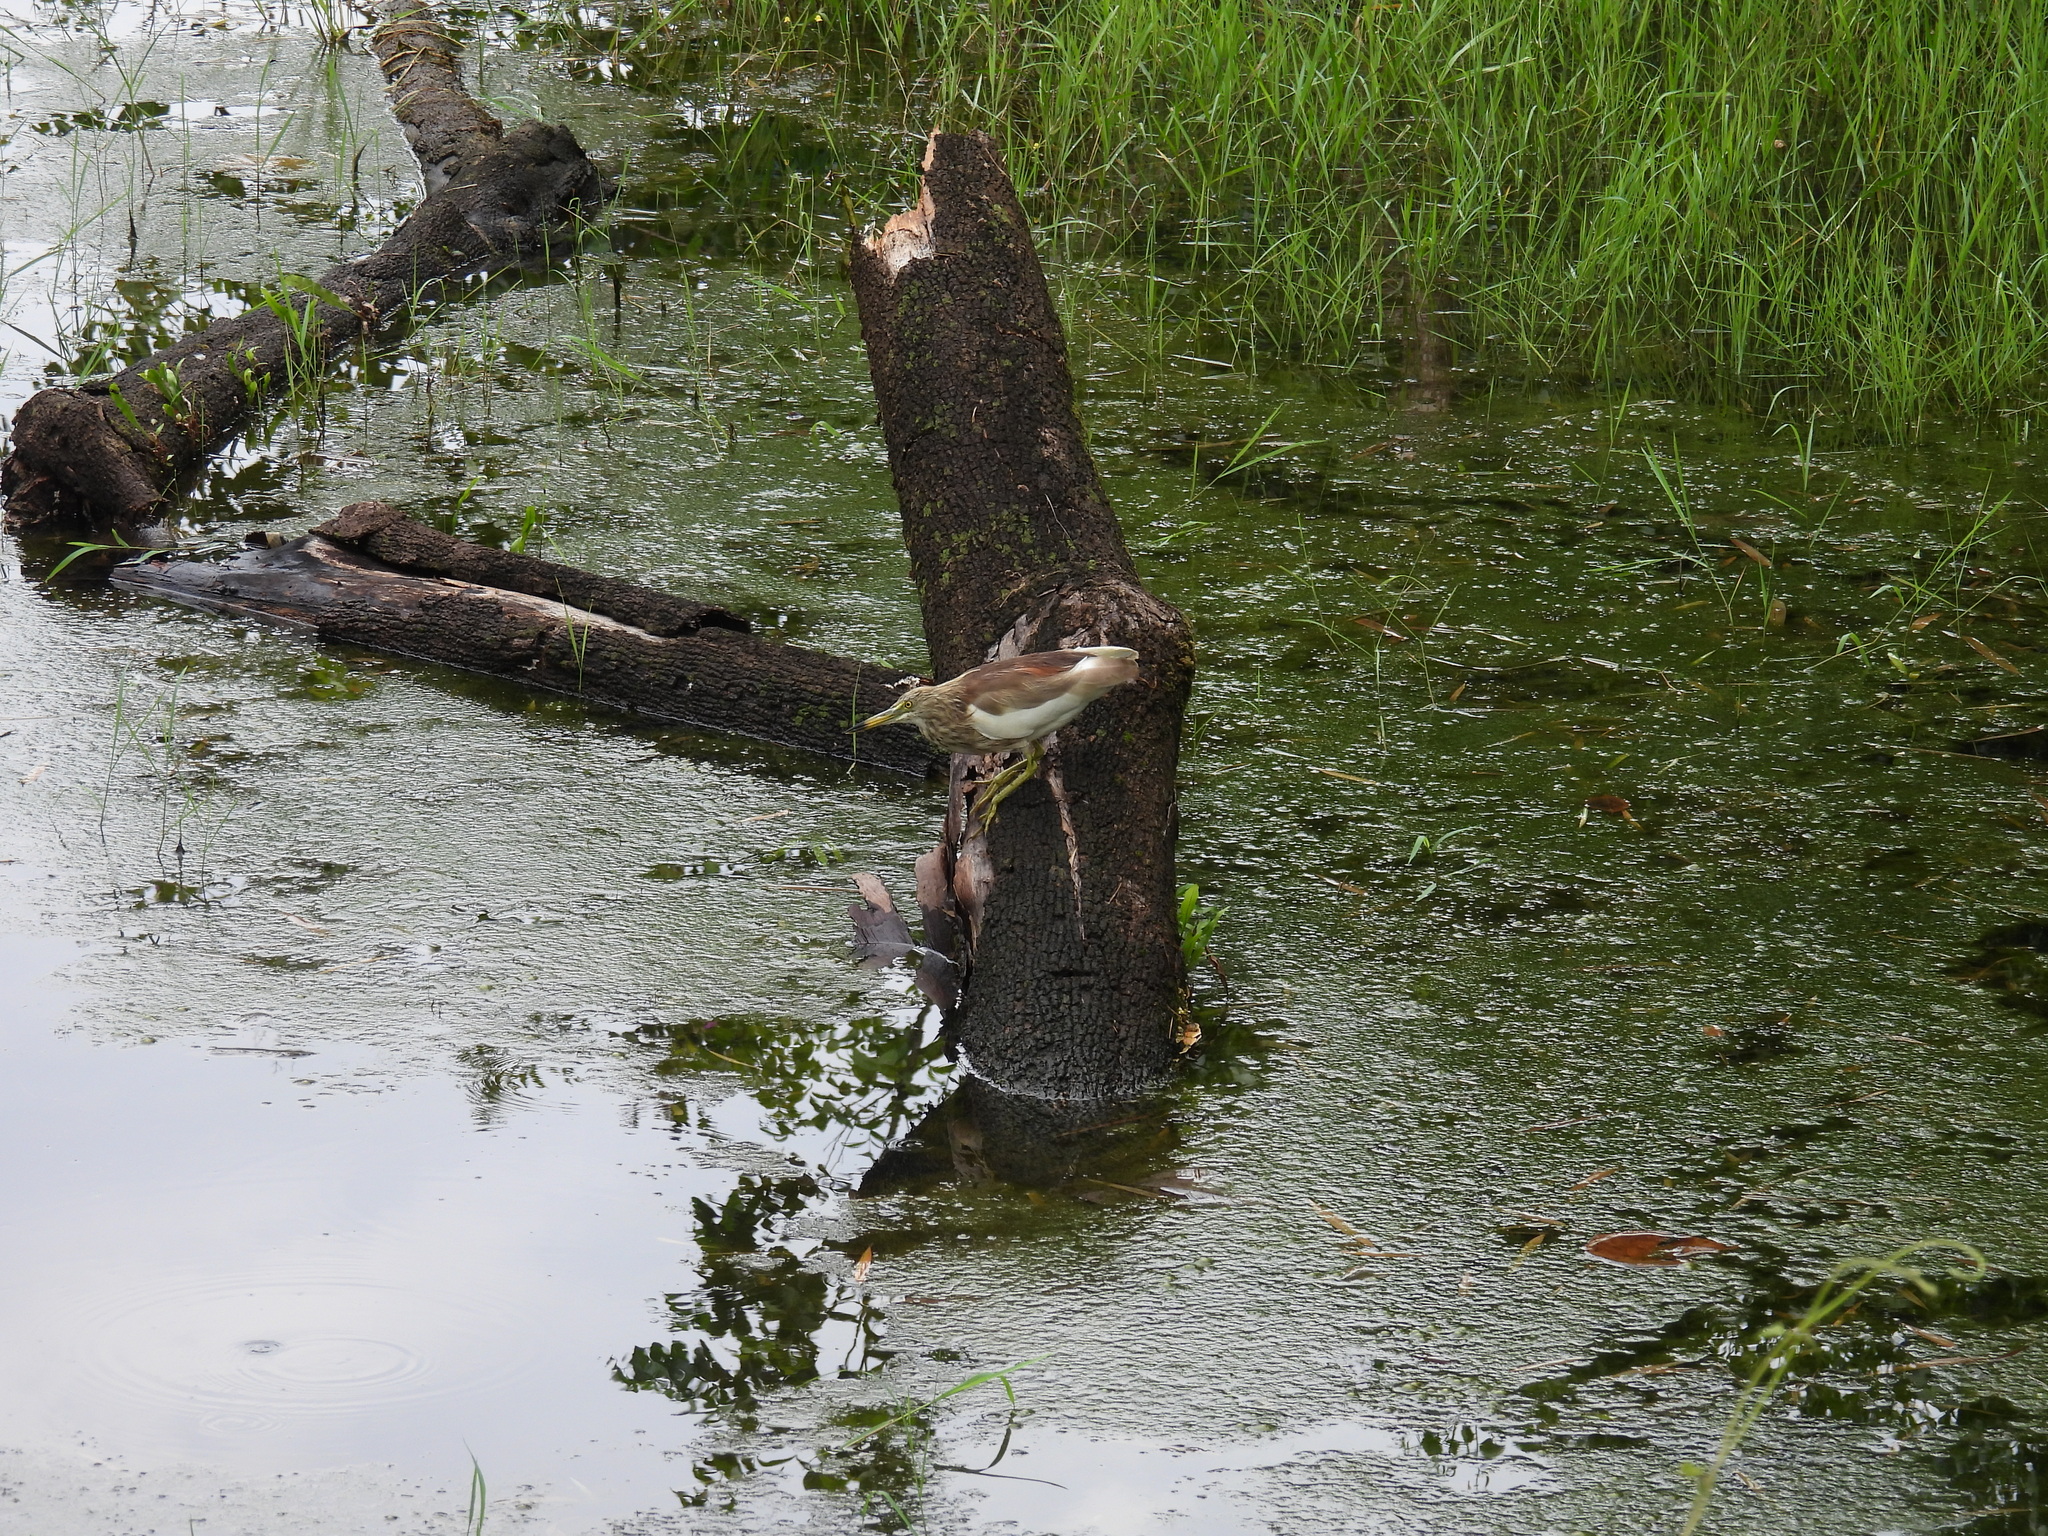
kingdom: Animalia
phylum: Chordata
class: Aves
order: Pelecaniformes
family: Ardeidae
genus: Ardeola
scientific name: Ardeola grayii
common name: Indian pond heron
